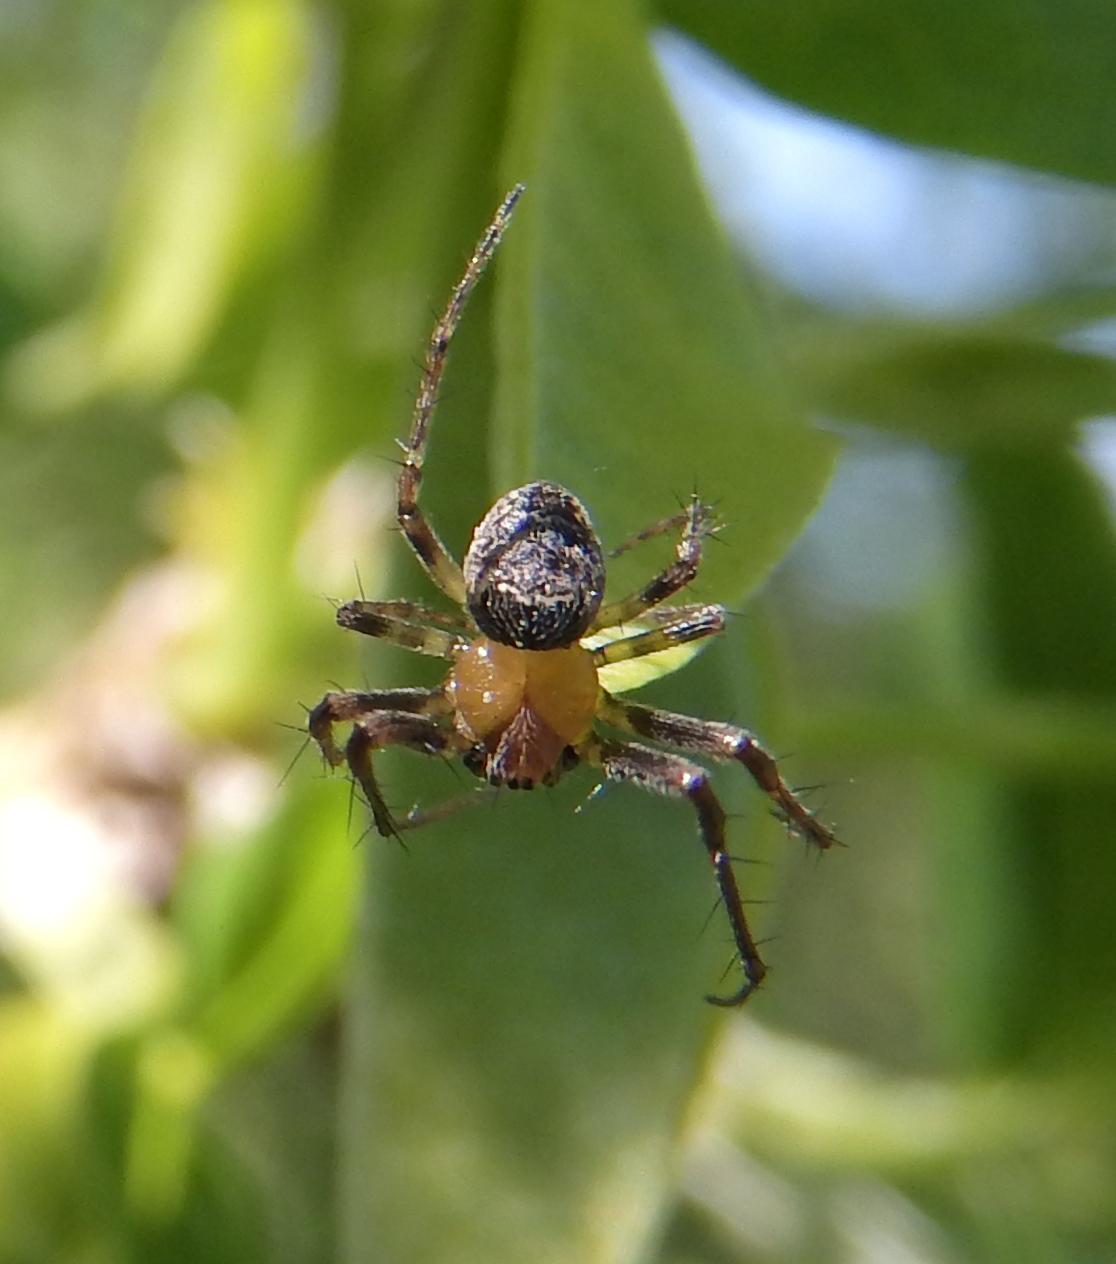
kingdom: Animalia
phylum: Arthropoda
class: Arachnida
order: Araneae
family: Araneidae
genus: Zilla
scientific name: Zilla diodia
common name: Zilla diodia
